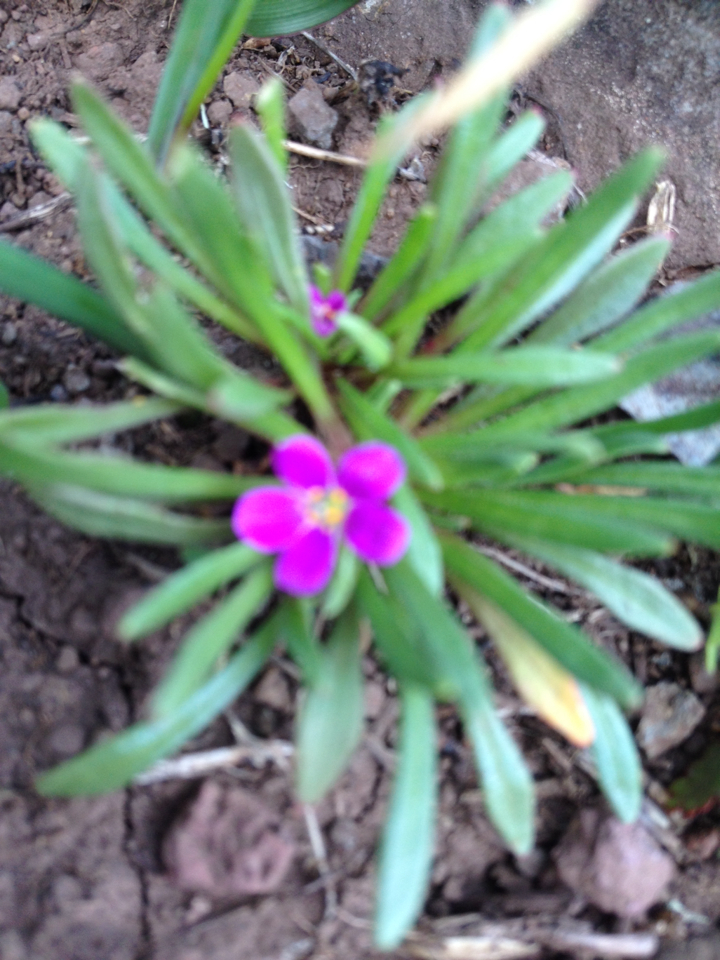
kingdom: Plantae
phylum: Tracheophyta
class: Magnoliopsida
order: Caryophyllales
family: Montiaceae
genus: Calandrinia
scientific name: Calandrinia menziesii
